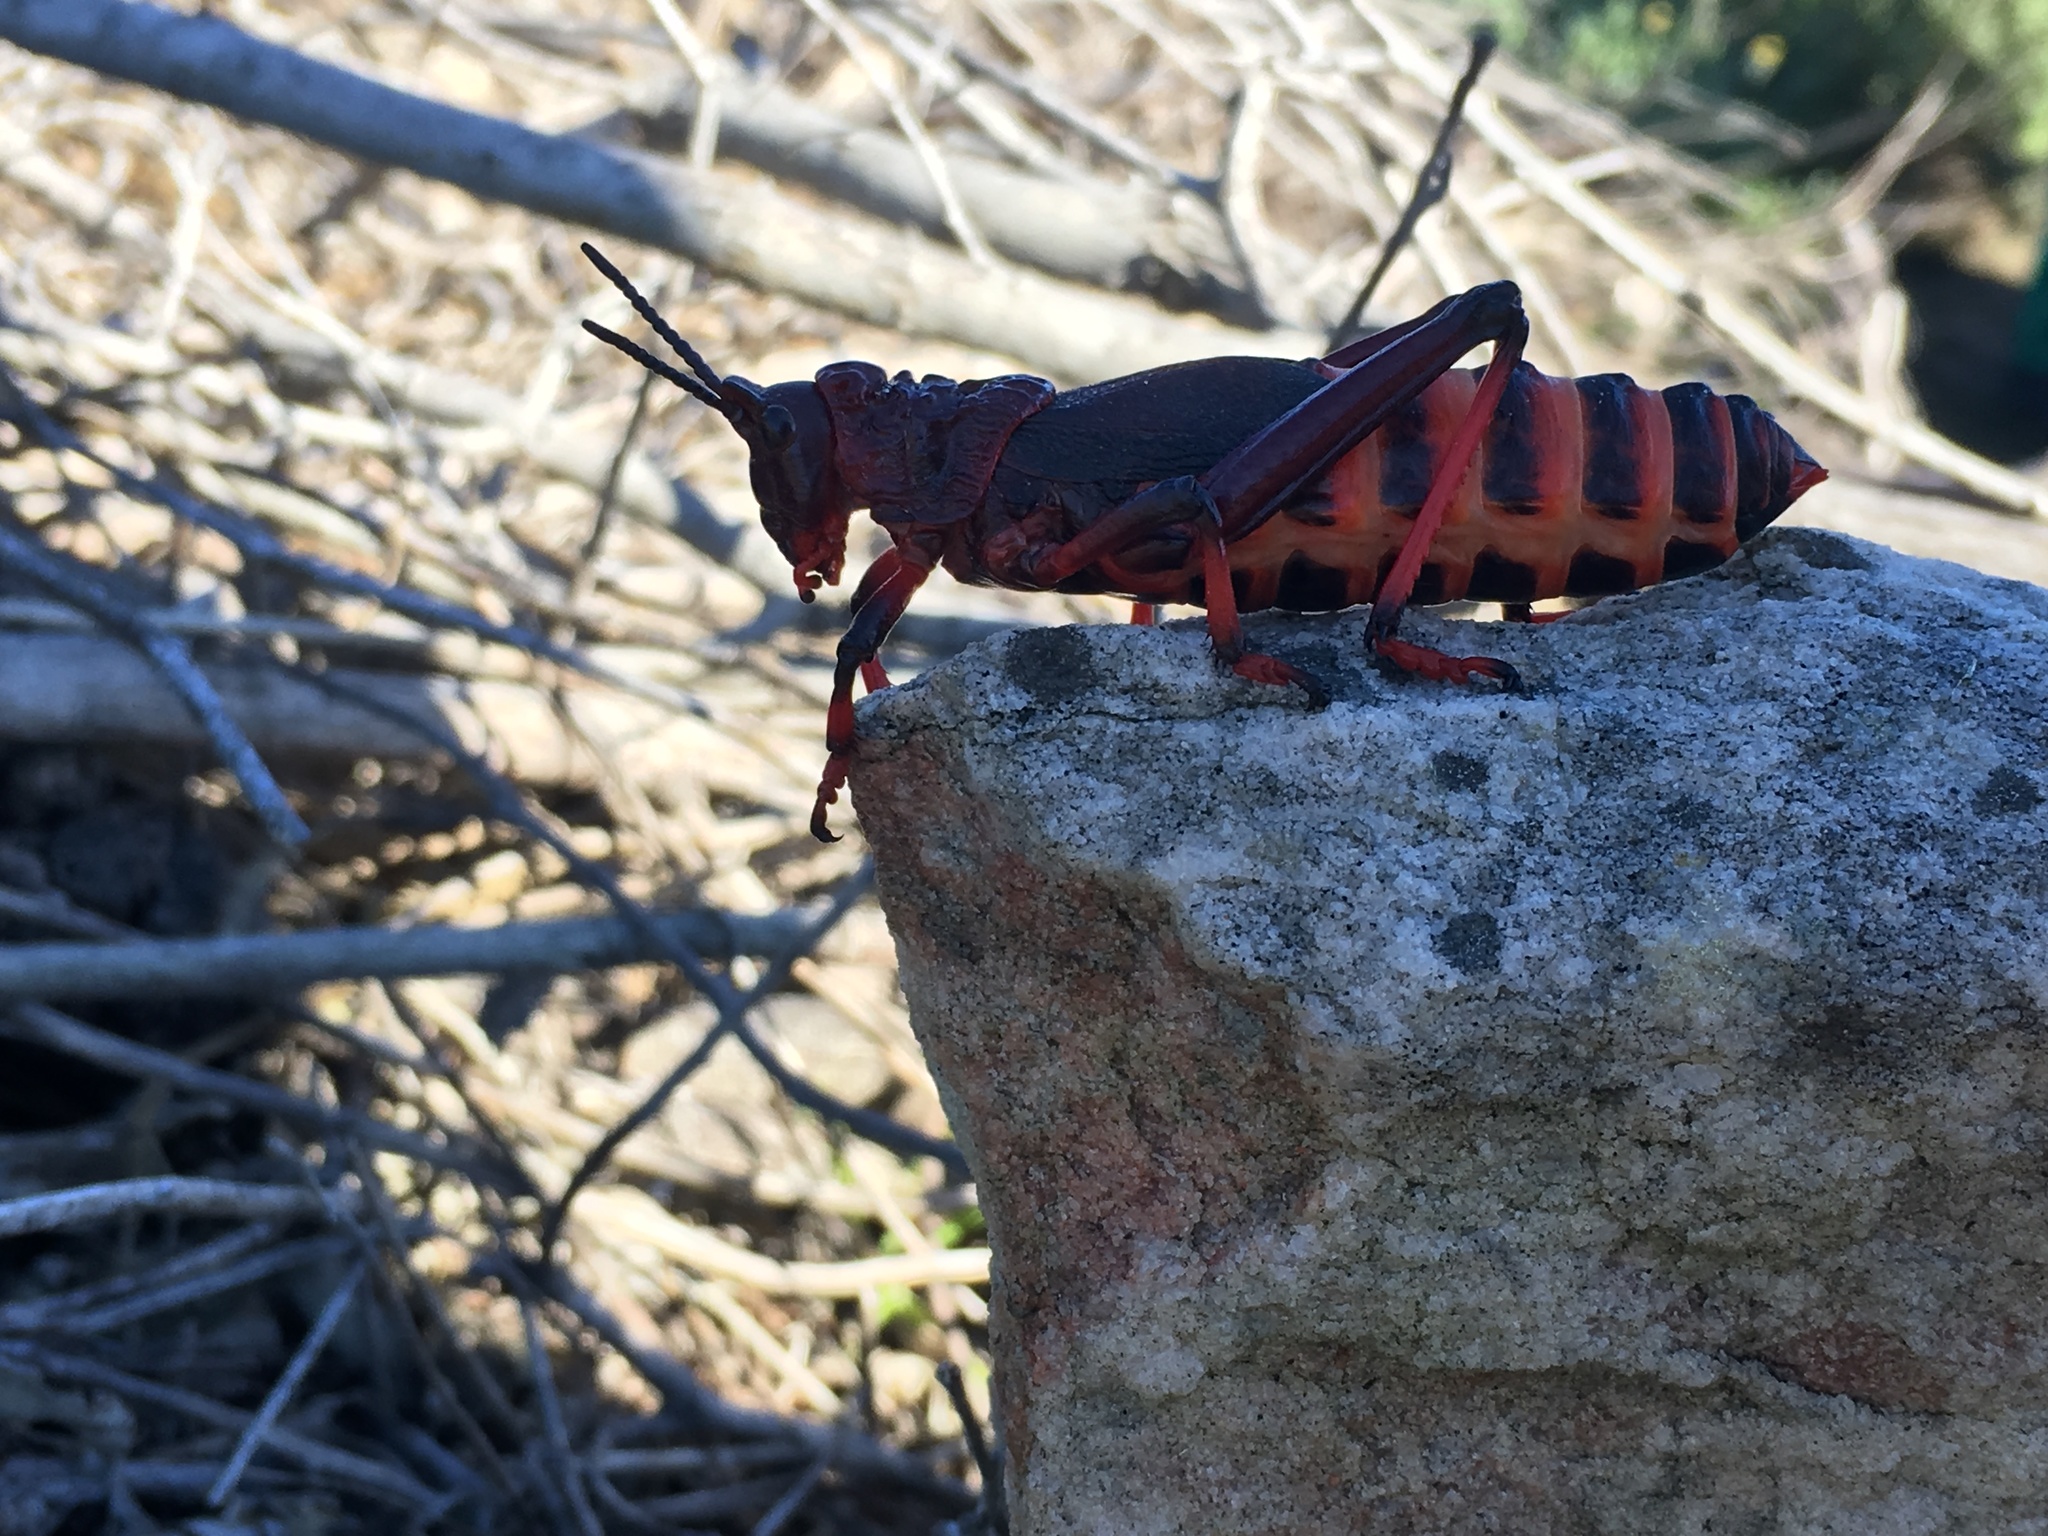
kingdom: Animalia
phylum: Arthropoda
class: Insecta
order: Orthoptera
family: Pyrgomorphidae
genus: Dictyophorus
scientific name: Dictyophorus spumans
